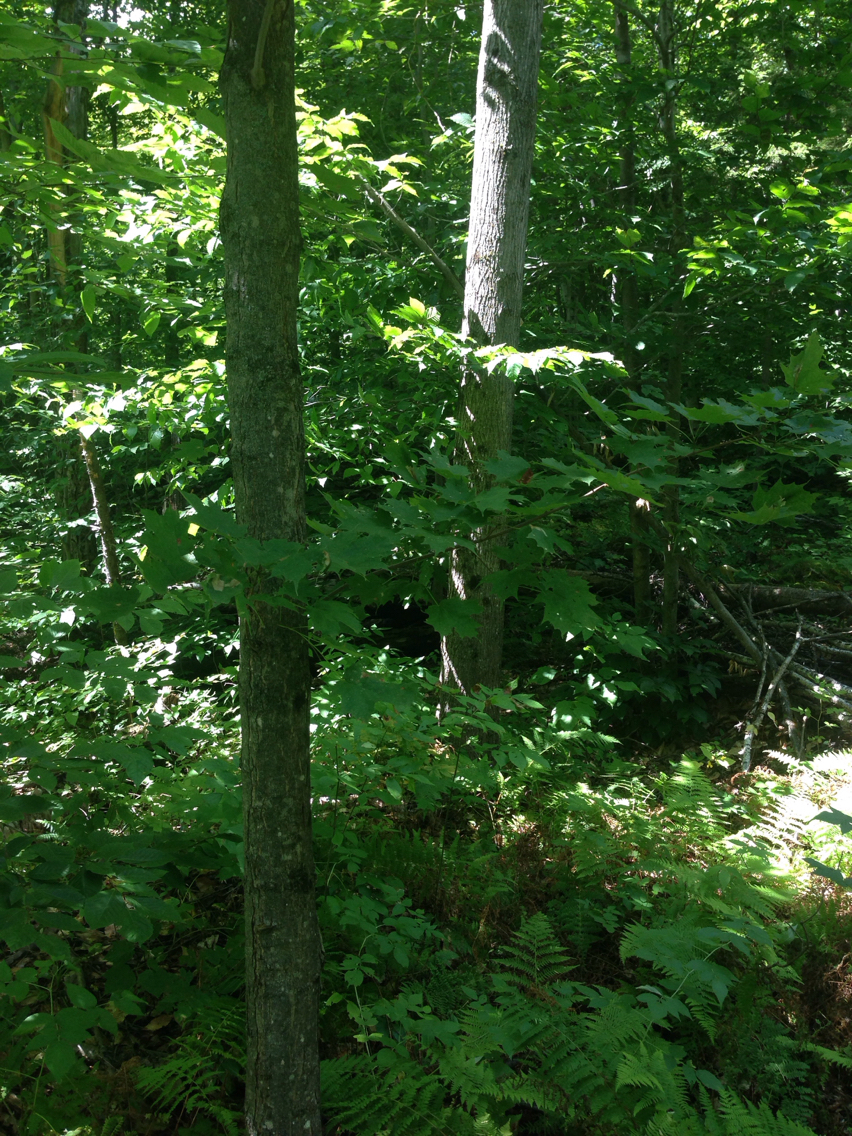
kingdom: Plantae
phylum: Tracheophyta
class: Magnoliopsida
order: Sapindales
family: Sapindaceae
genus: Acer
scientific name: Acer saccharum
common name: Sugar maple
